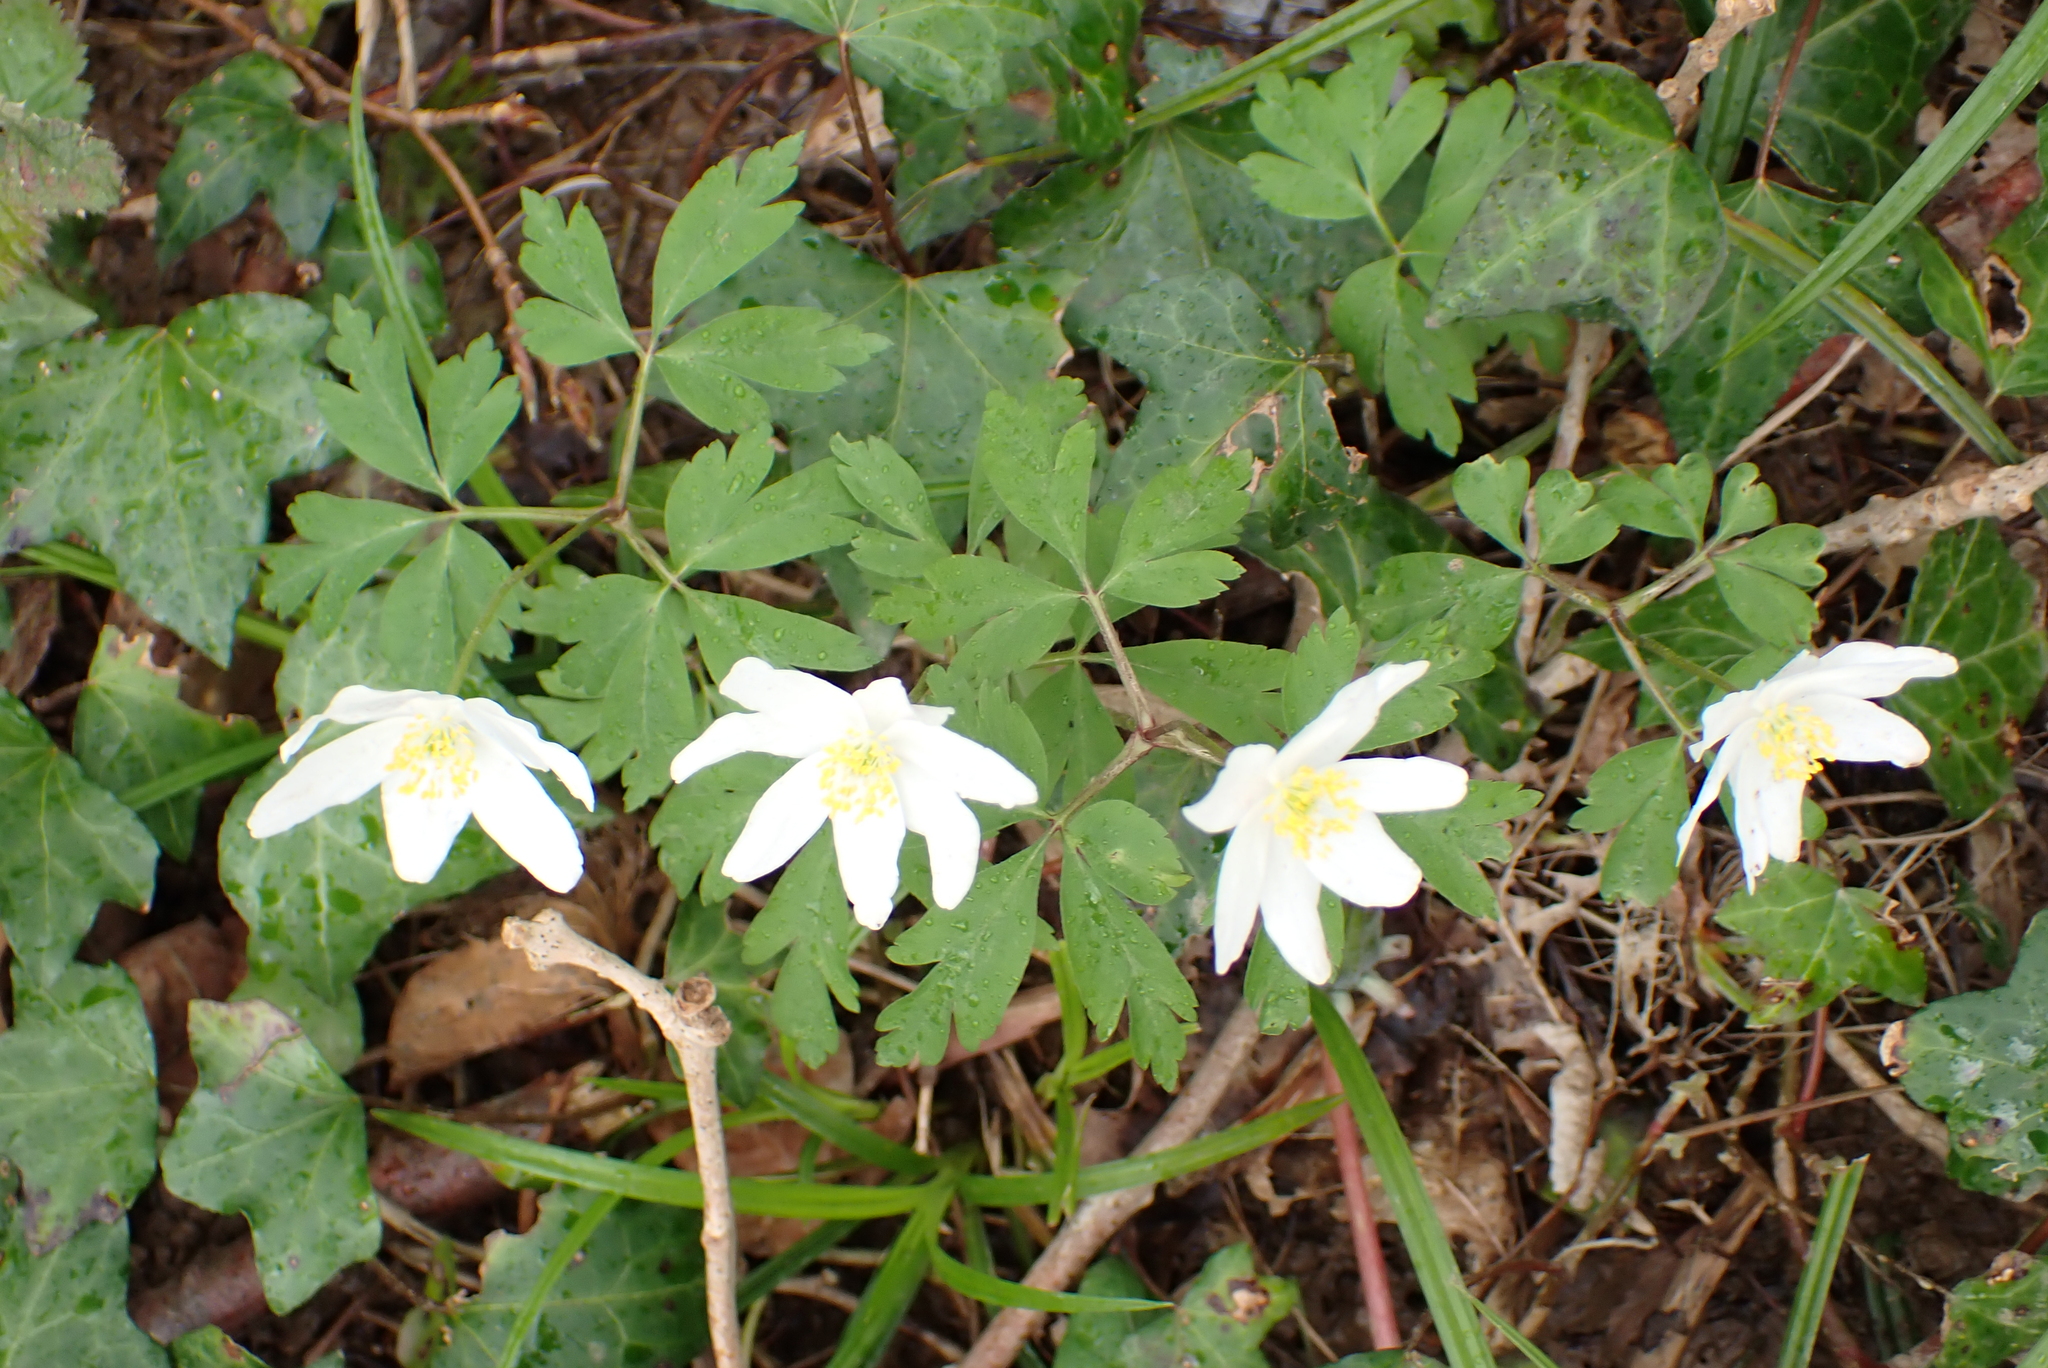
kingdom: Plantae
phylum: Tracheophyta
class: Magnoliopsida
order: Ranunculales
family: Ranunculaceae
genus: Anemone
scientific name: Anemone nemorosa
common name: Wood anemone
